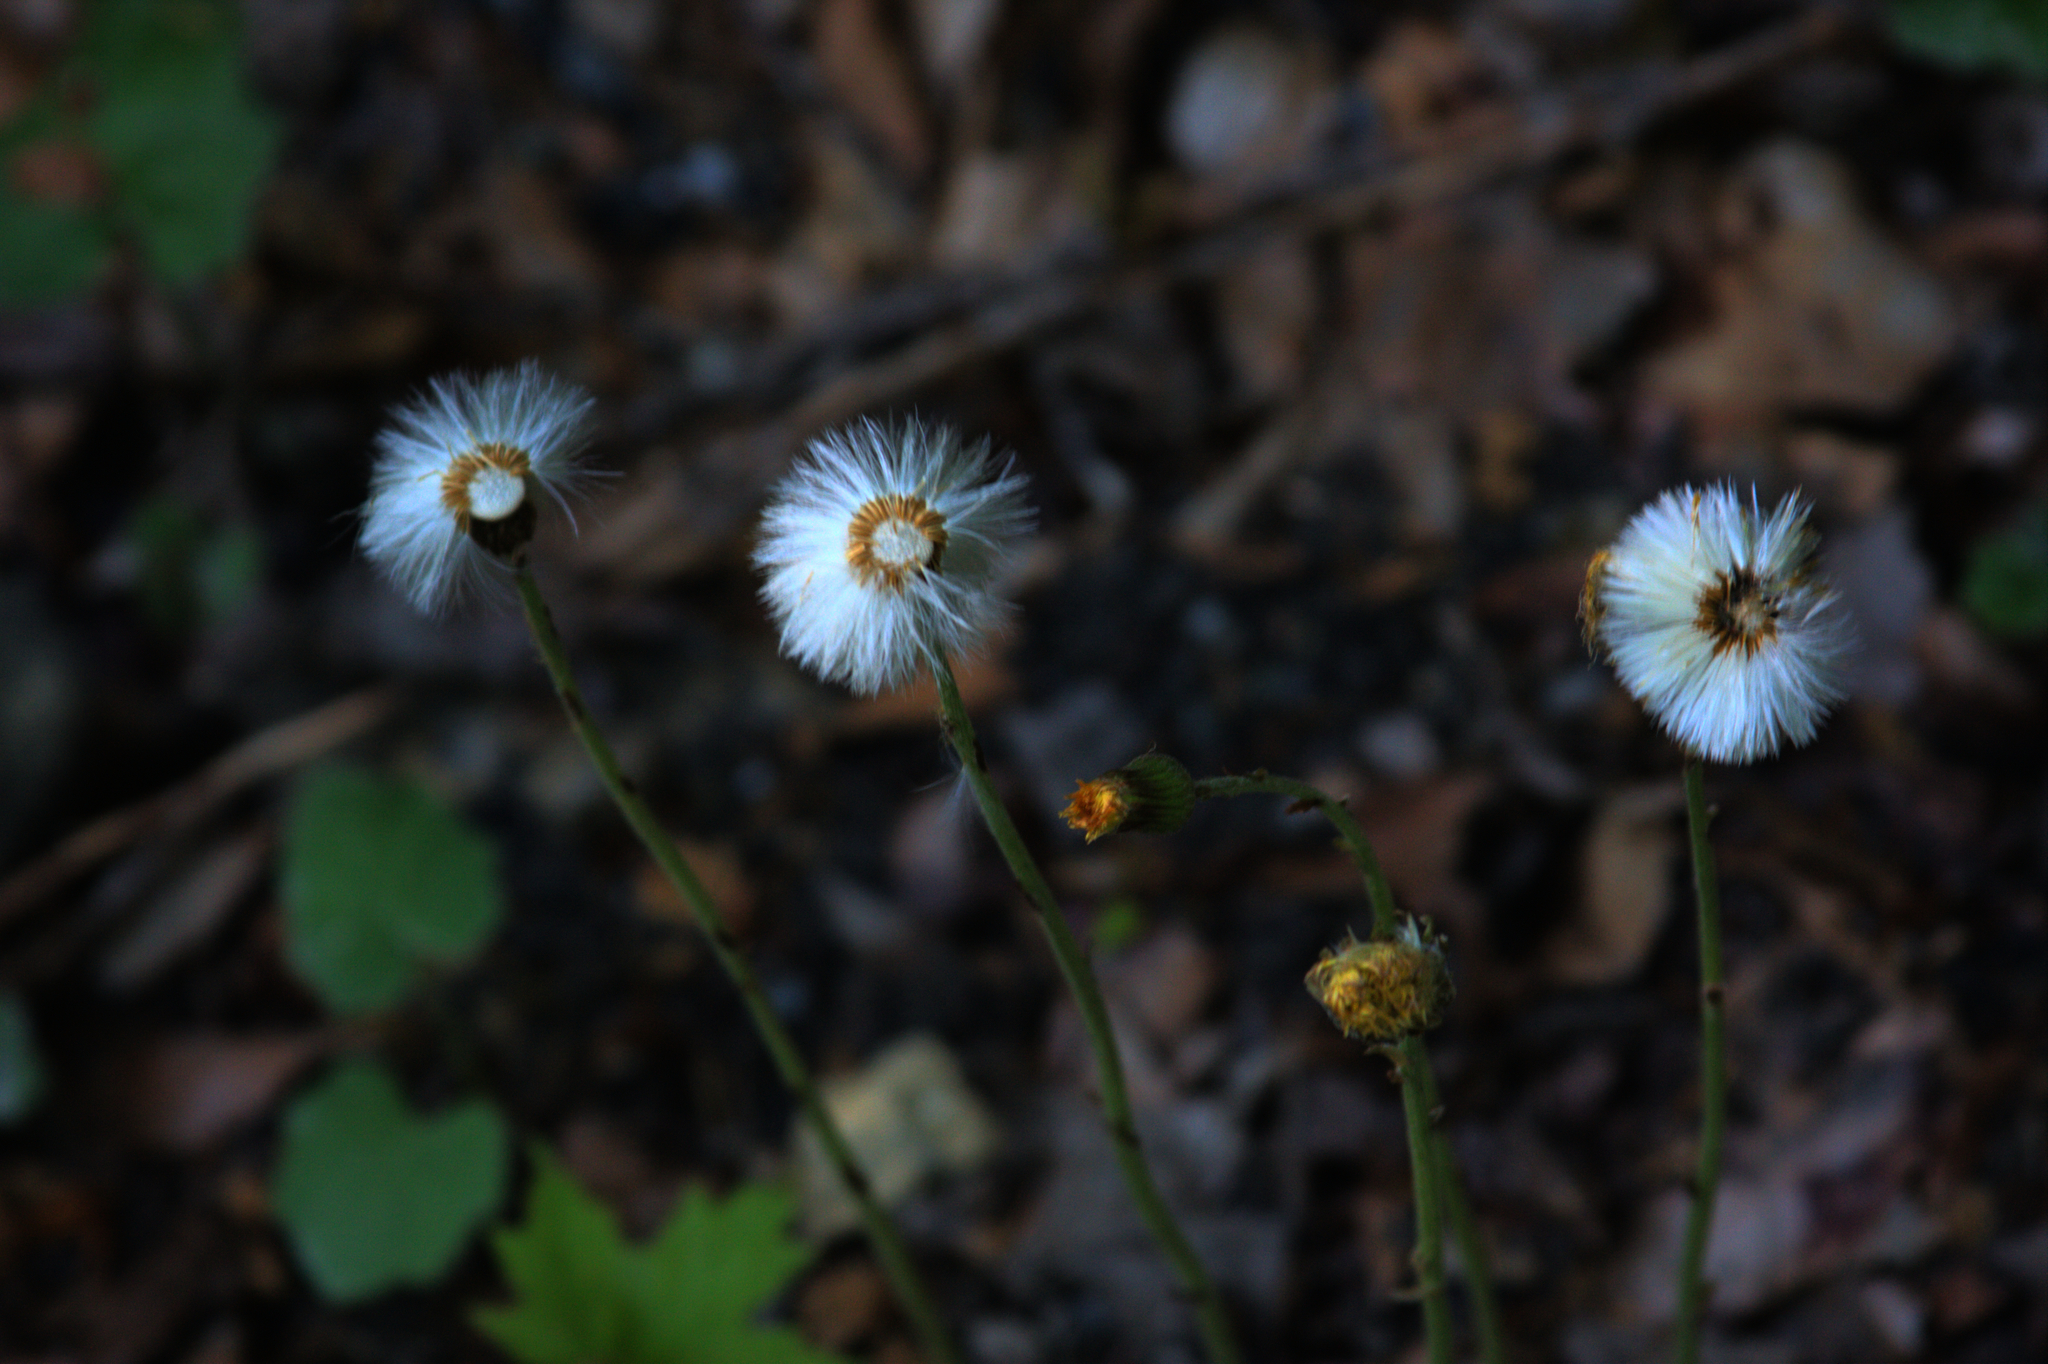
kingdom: Plantae
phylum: Tracheophyta
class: Magnoliopsida
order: Asterales
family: Asteraceae
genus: Tussilago
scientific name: Tussilago farfara
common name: Coltsfoot
